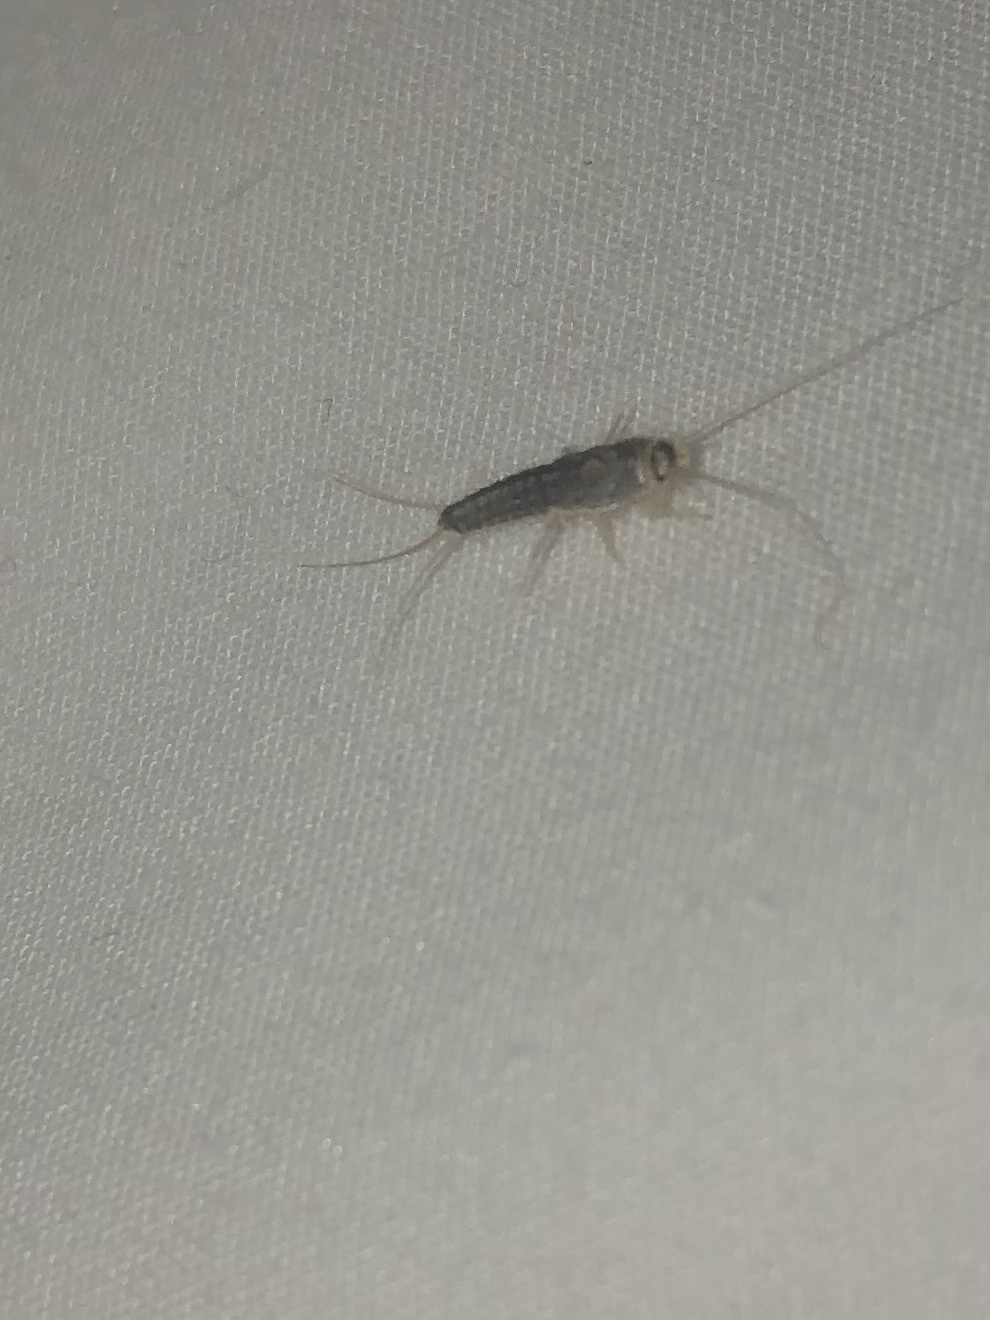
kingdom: Animalia
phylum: Arthropoda
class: Insecta
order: Zygentoma
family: Lepismatidae
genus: Ctenolepisma
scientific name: Ctenolepisma longicaudatum
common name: Silverfish
